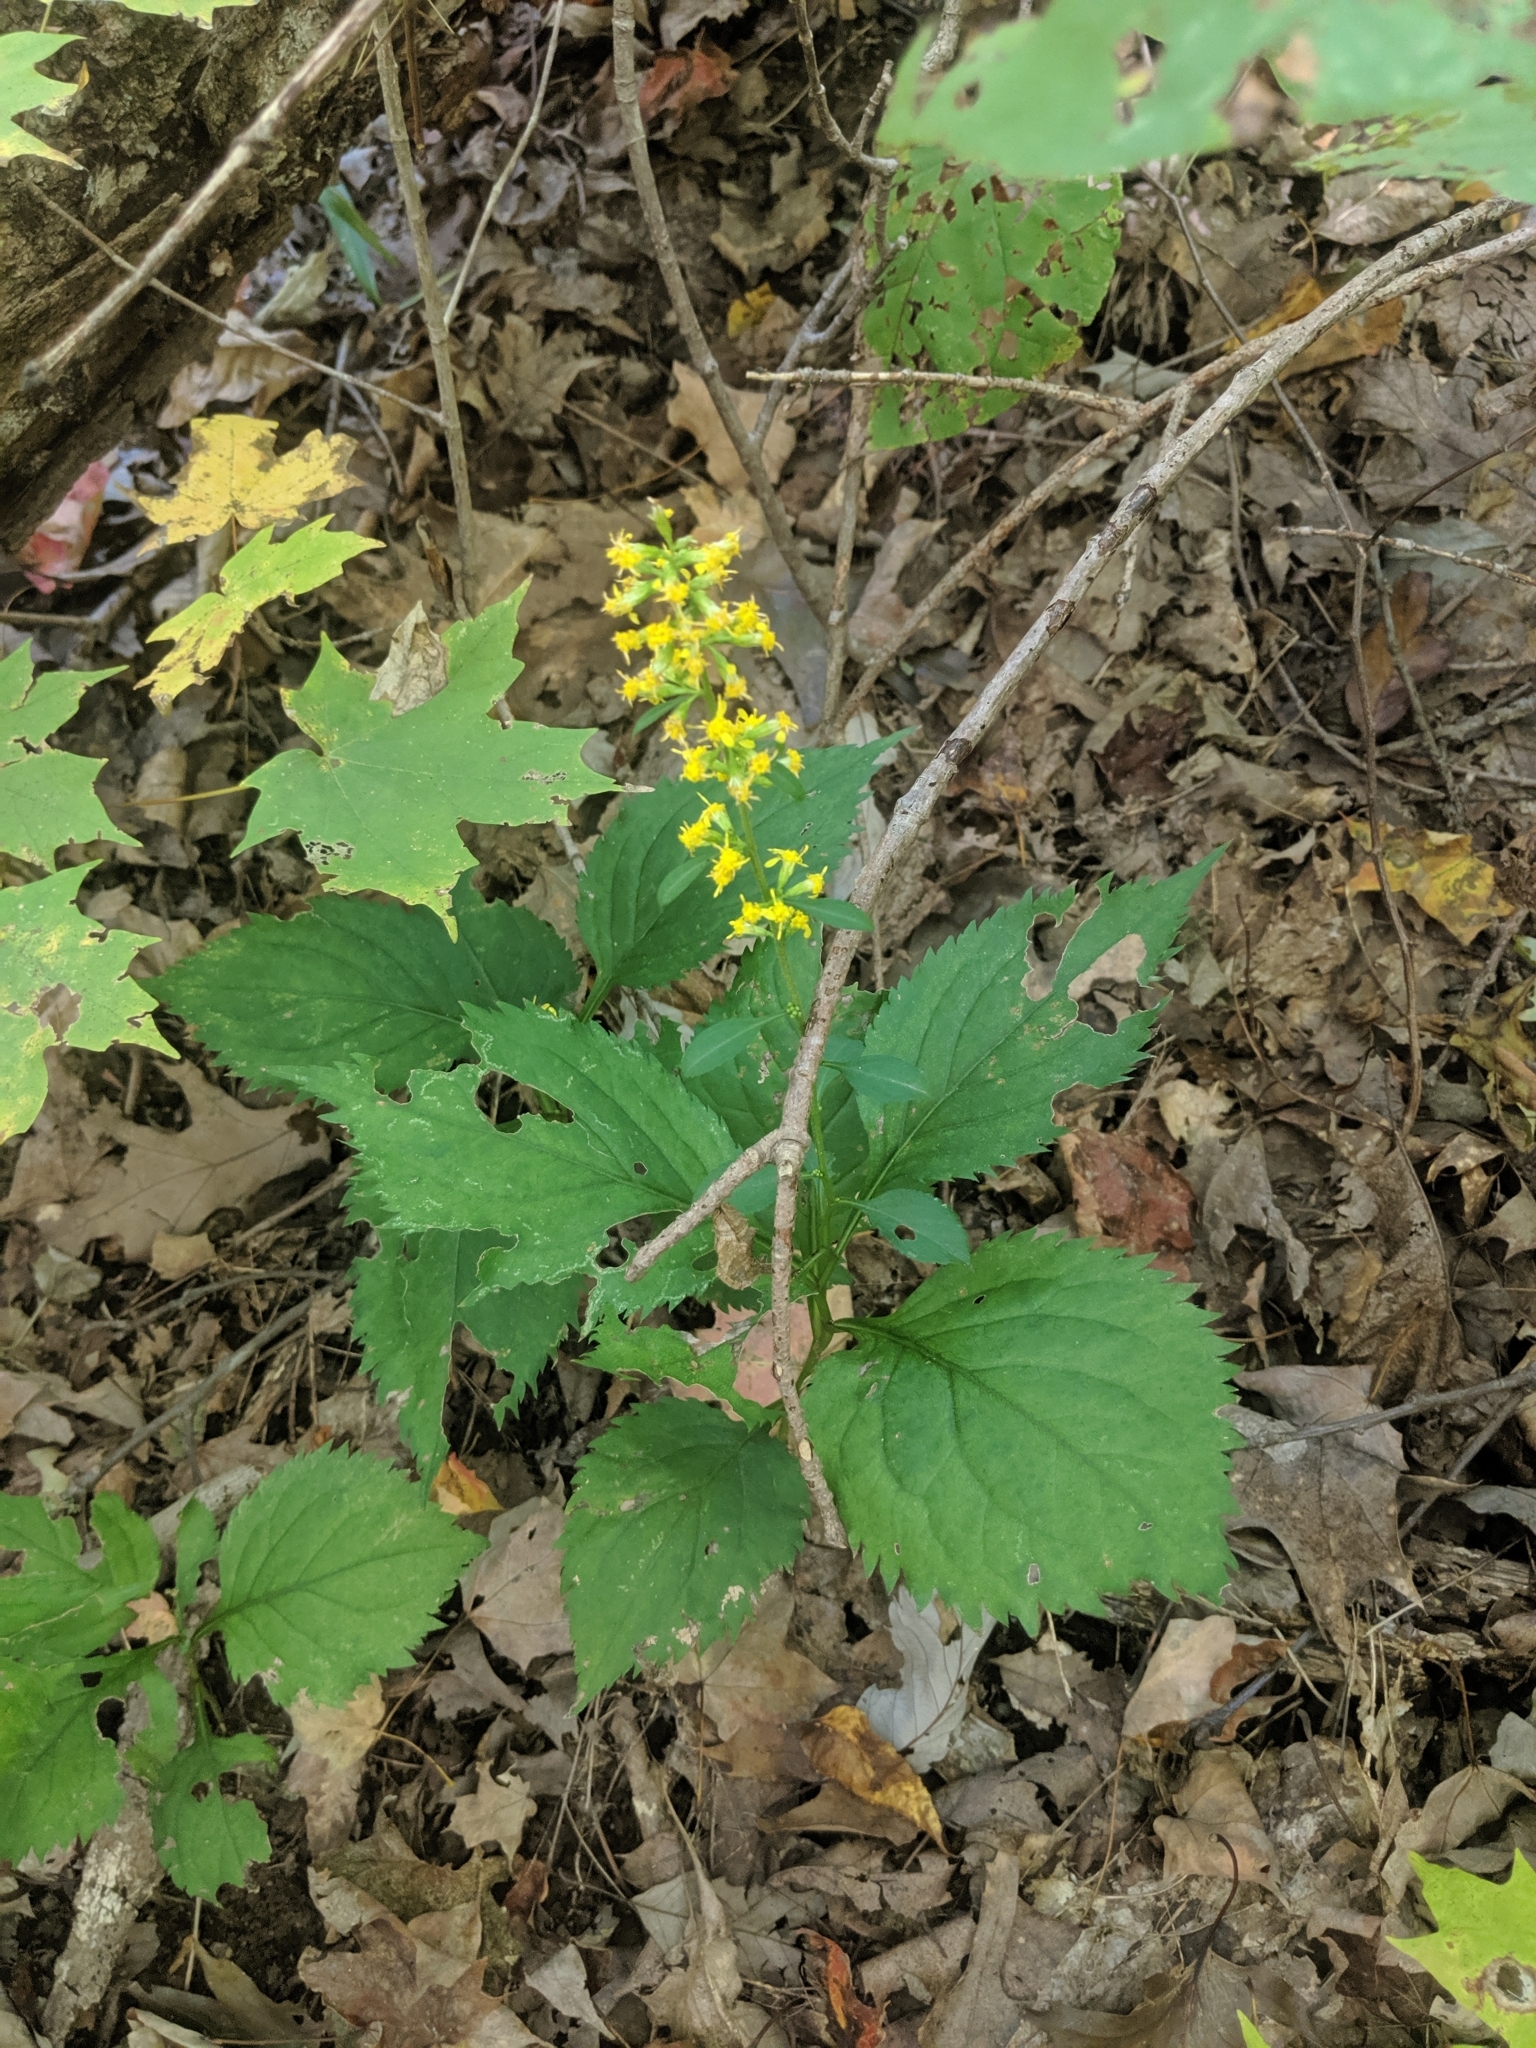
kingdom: Plantae
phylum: Tracheophyta
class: Magnoliopsida
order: Asterales
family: Asteraceae
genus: Solidago
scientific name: Solidago flexicaulis
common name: Zig-zag goldenrod
